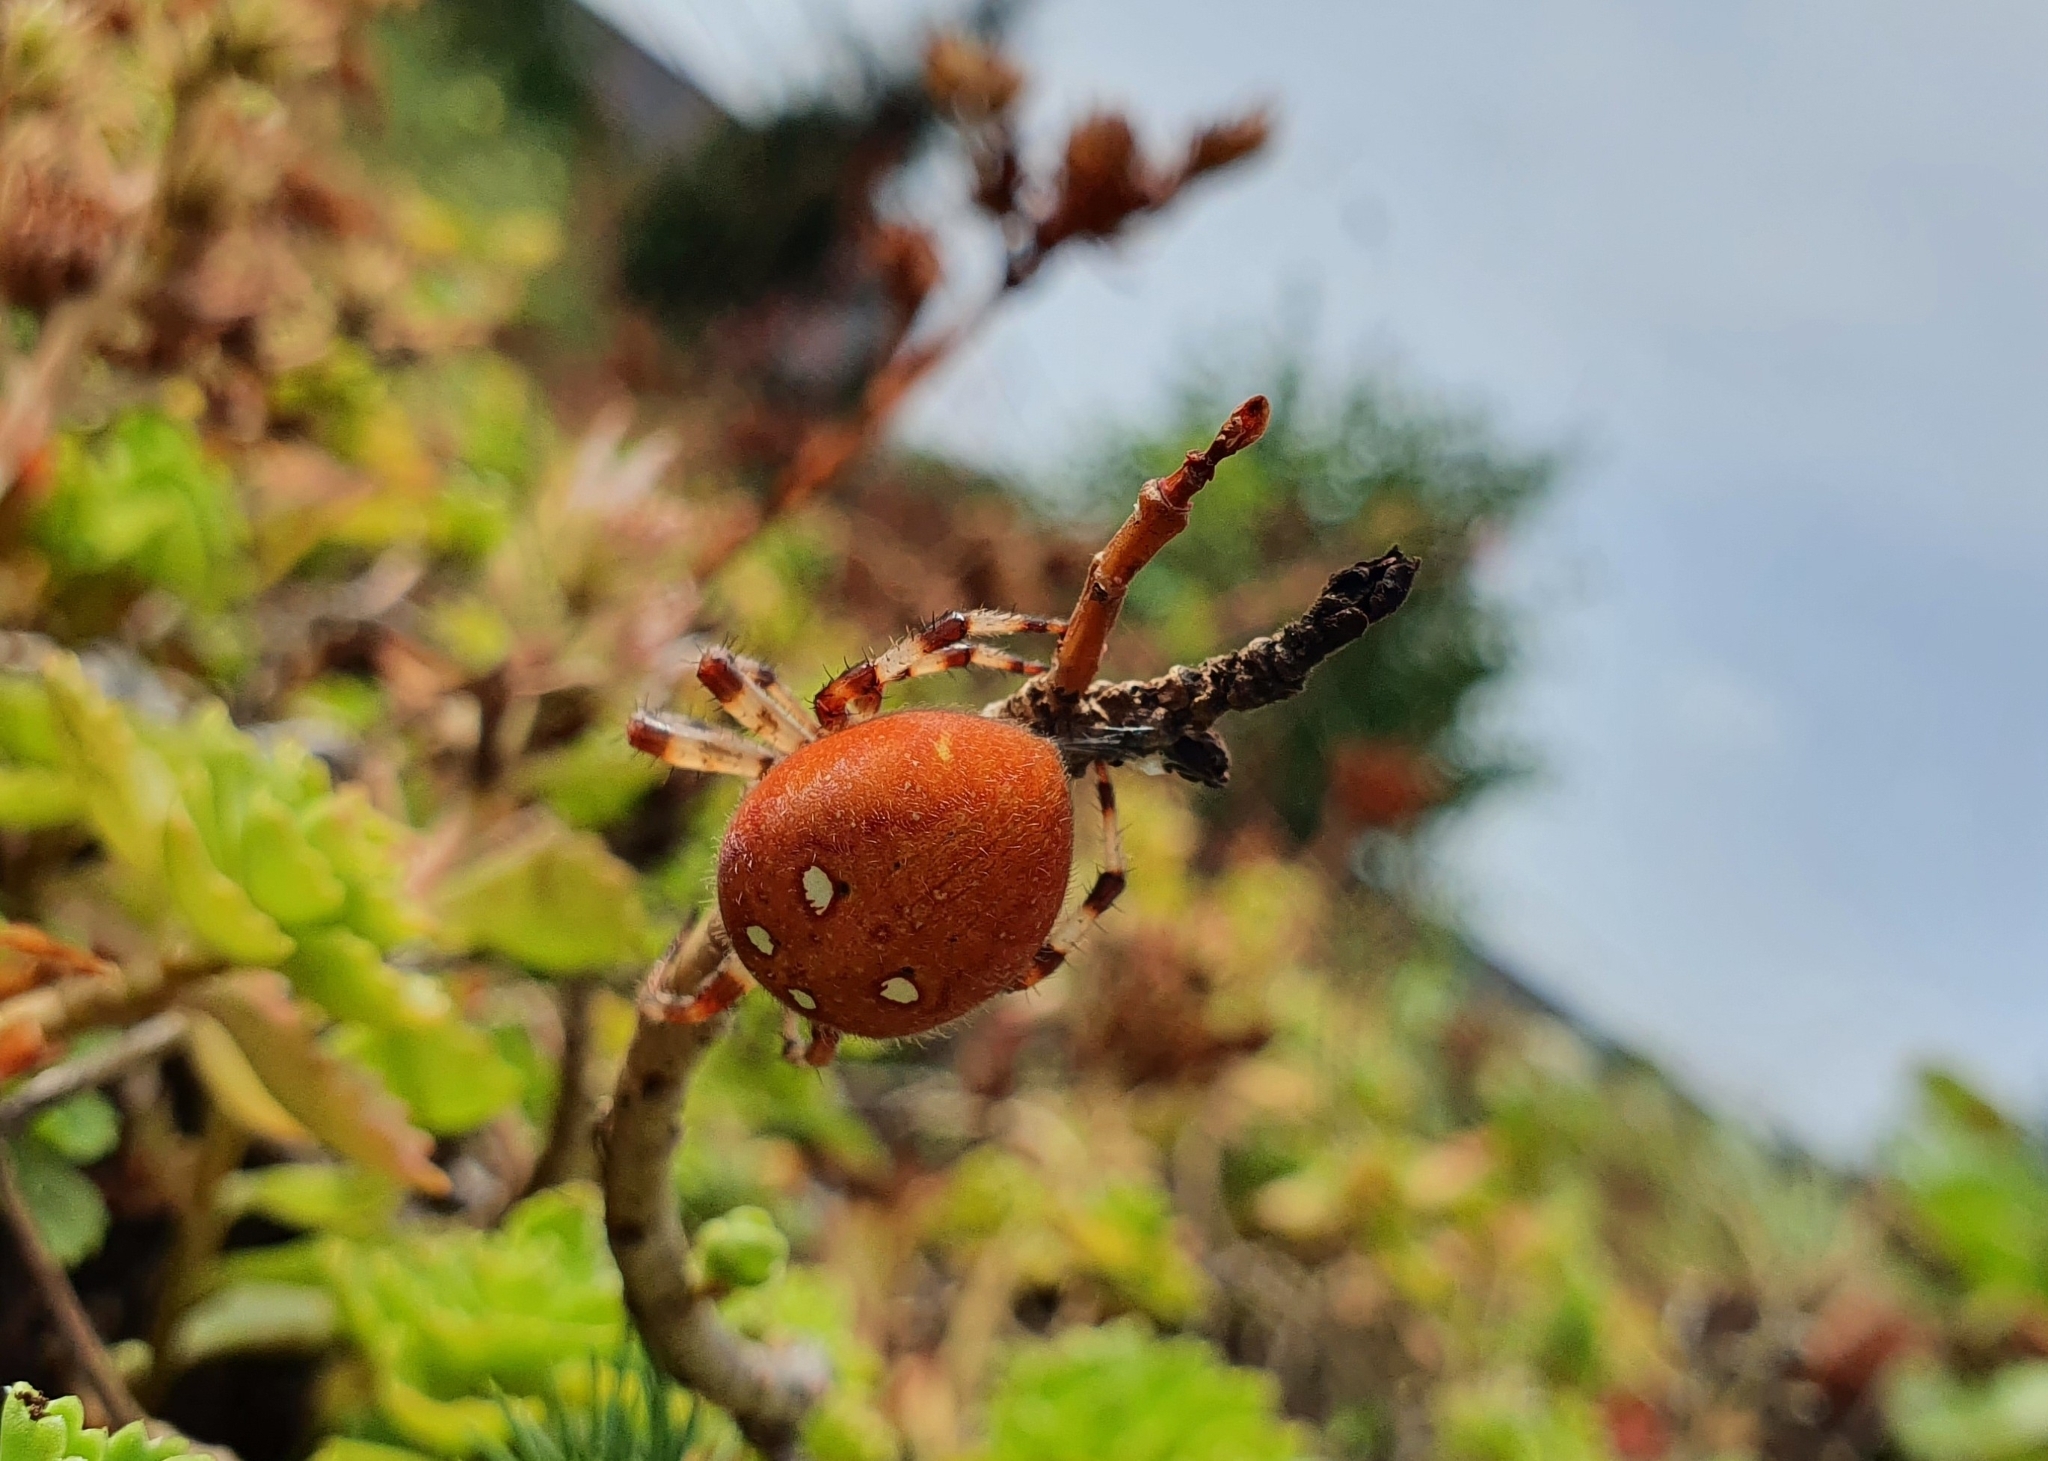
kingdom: Animalia
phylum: Arthropoda
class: Arachnida
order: Araneae
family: Araneidae
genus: Araneus
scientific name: Araneus quadratus
